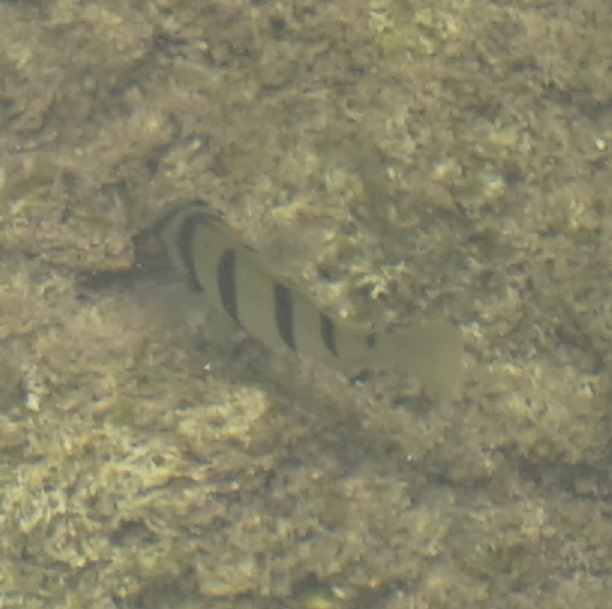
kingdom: Animalia
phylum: Chordata
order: Perciformes
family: Acanthuridae
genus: Acanthurus
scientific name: Acanthurus triostegus
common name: Convict surgeonfish
